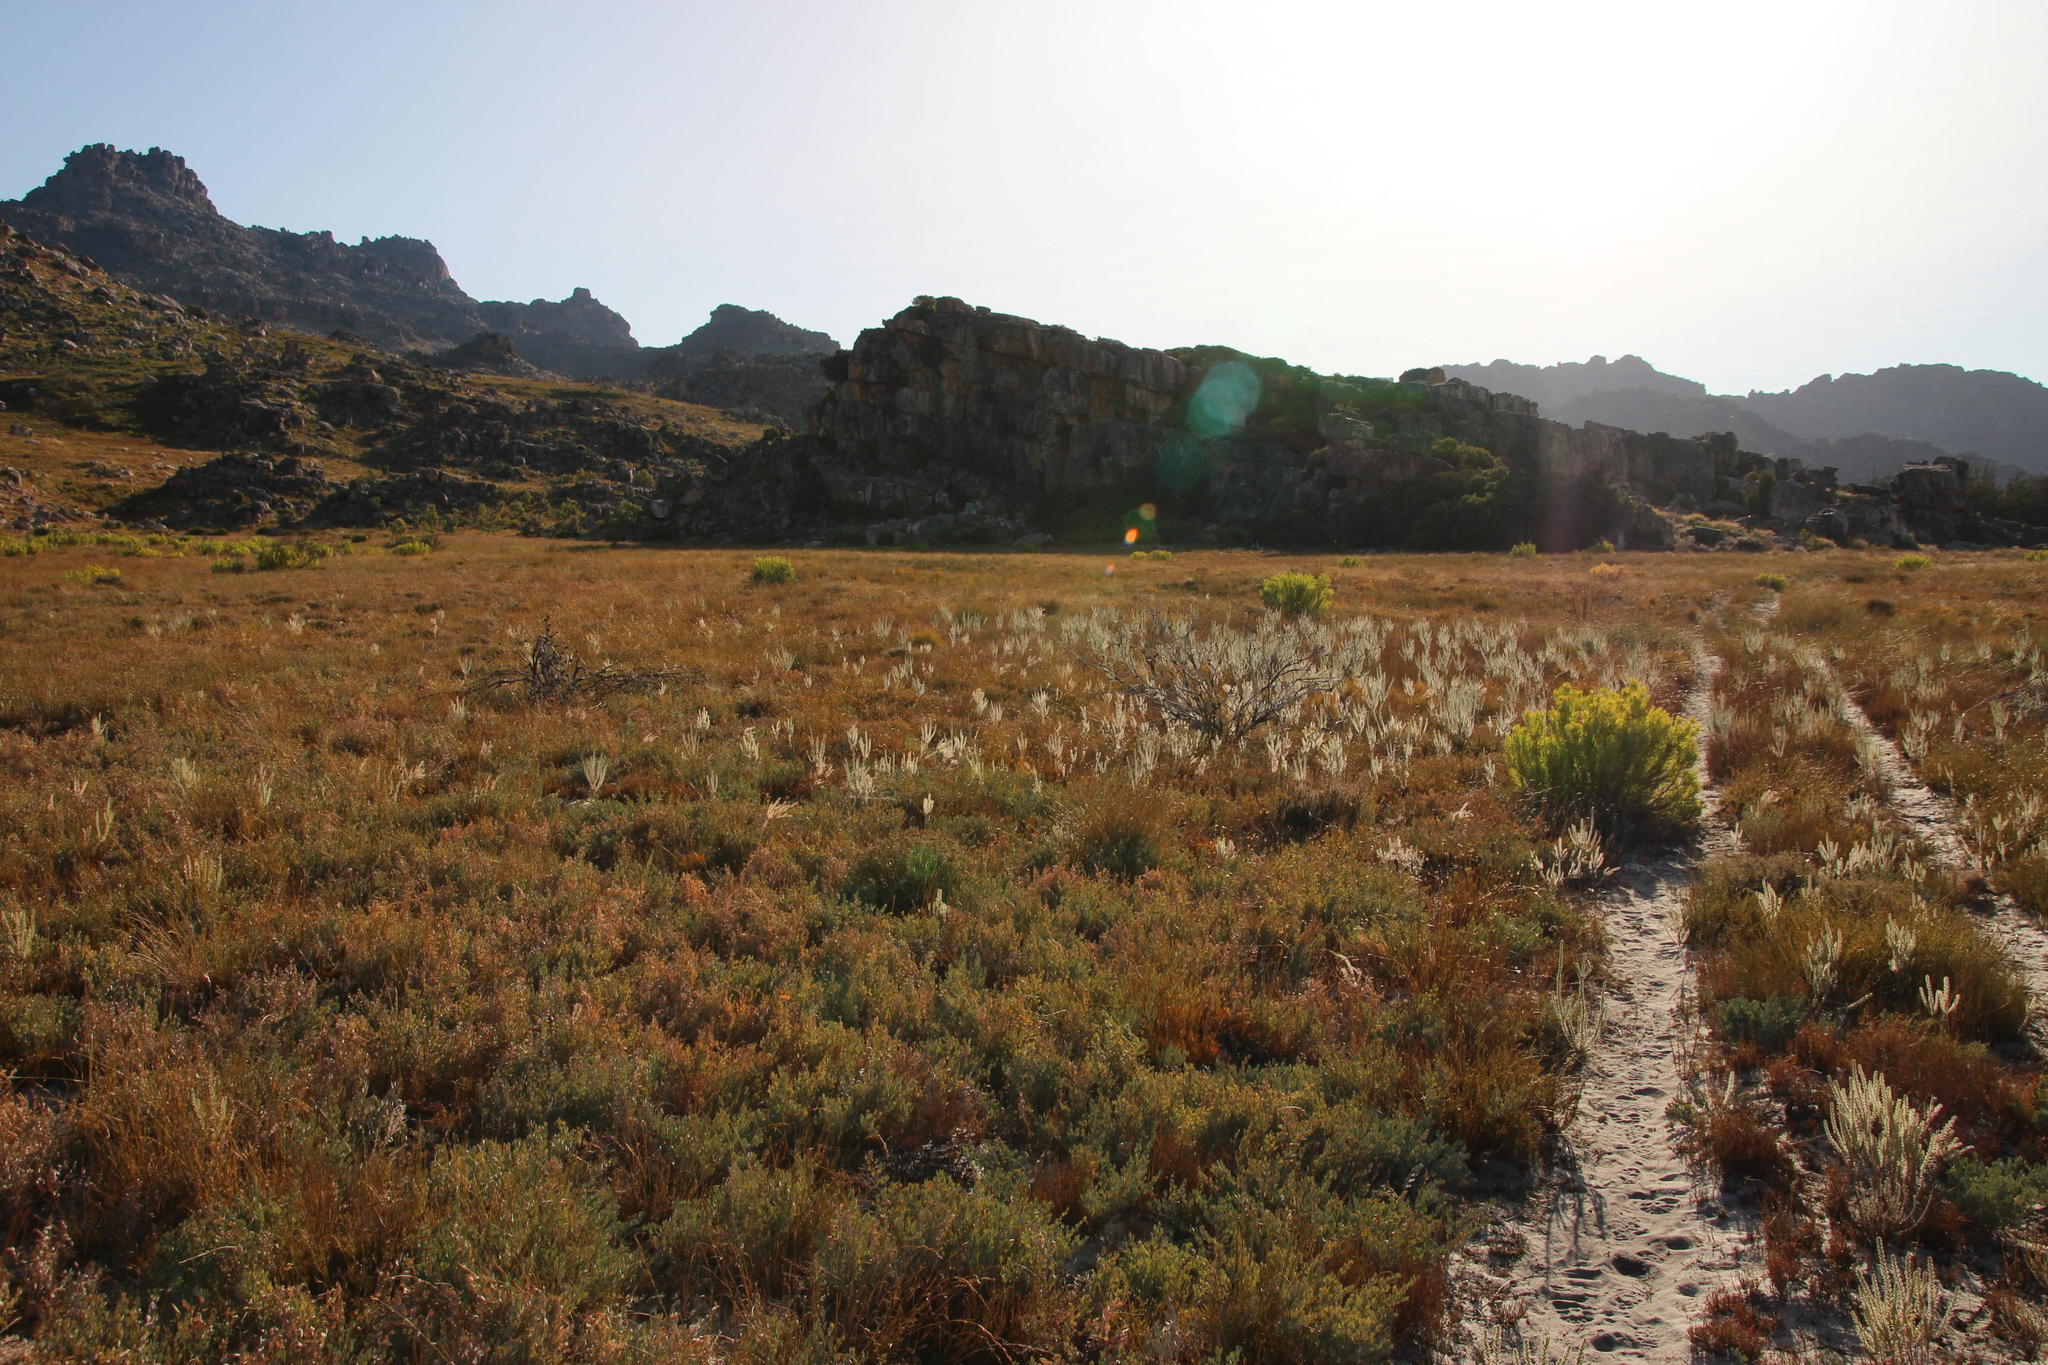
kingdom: Plantae
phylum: Tracheophyta
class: Magnoliopsida
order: Proteales
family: Proteaceae
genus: Leucadendron
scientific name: Leucadendron dubium
